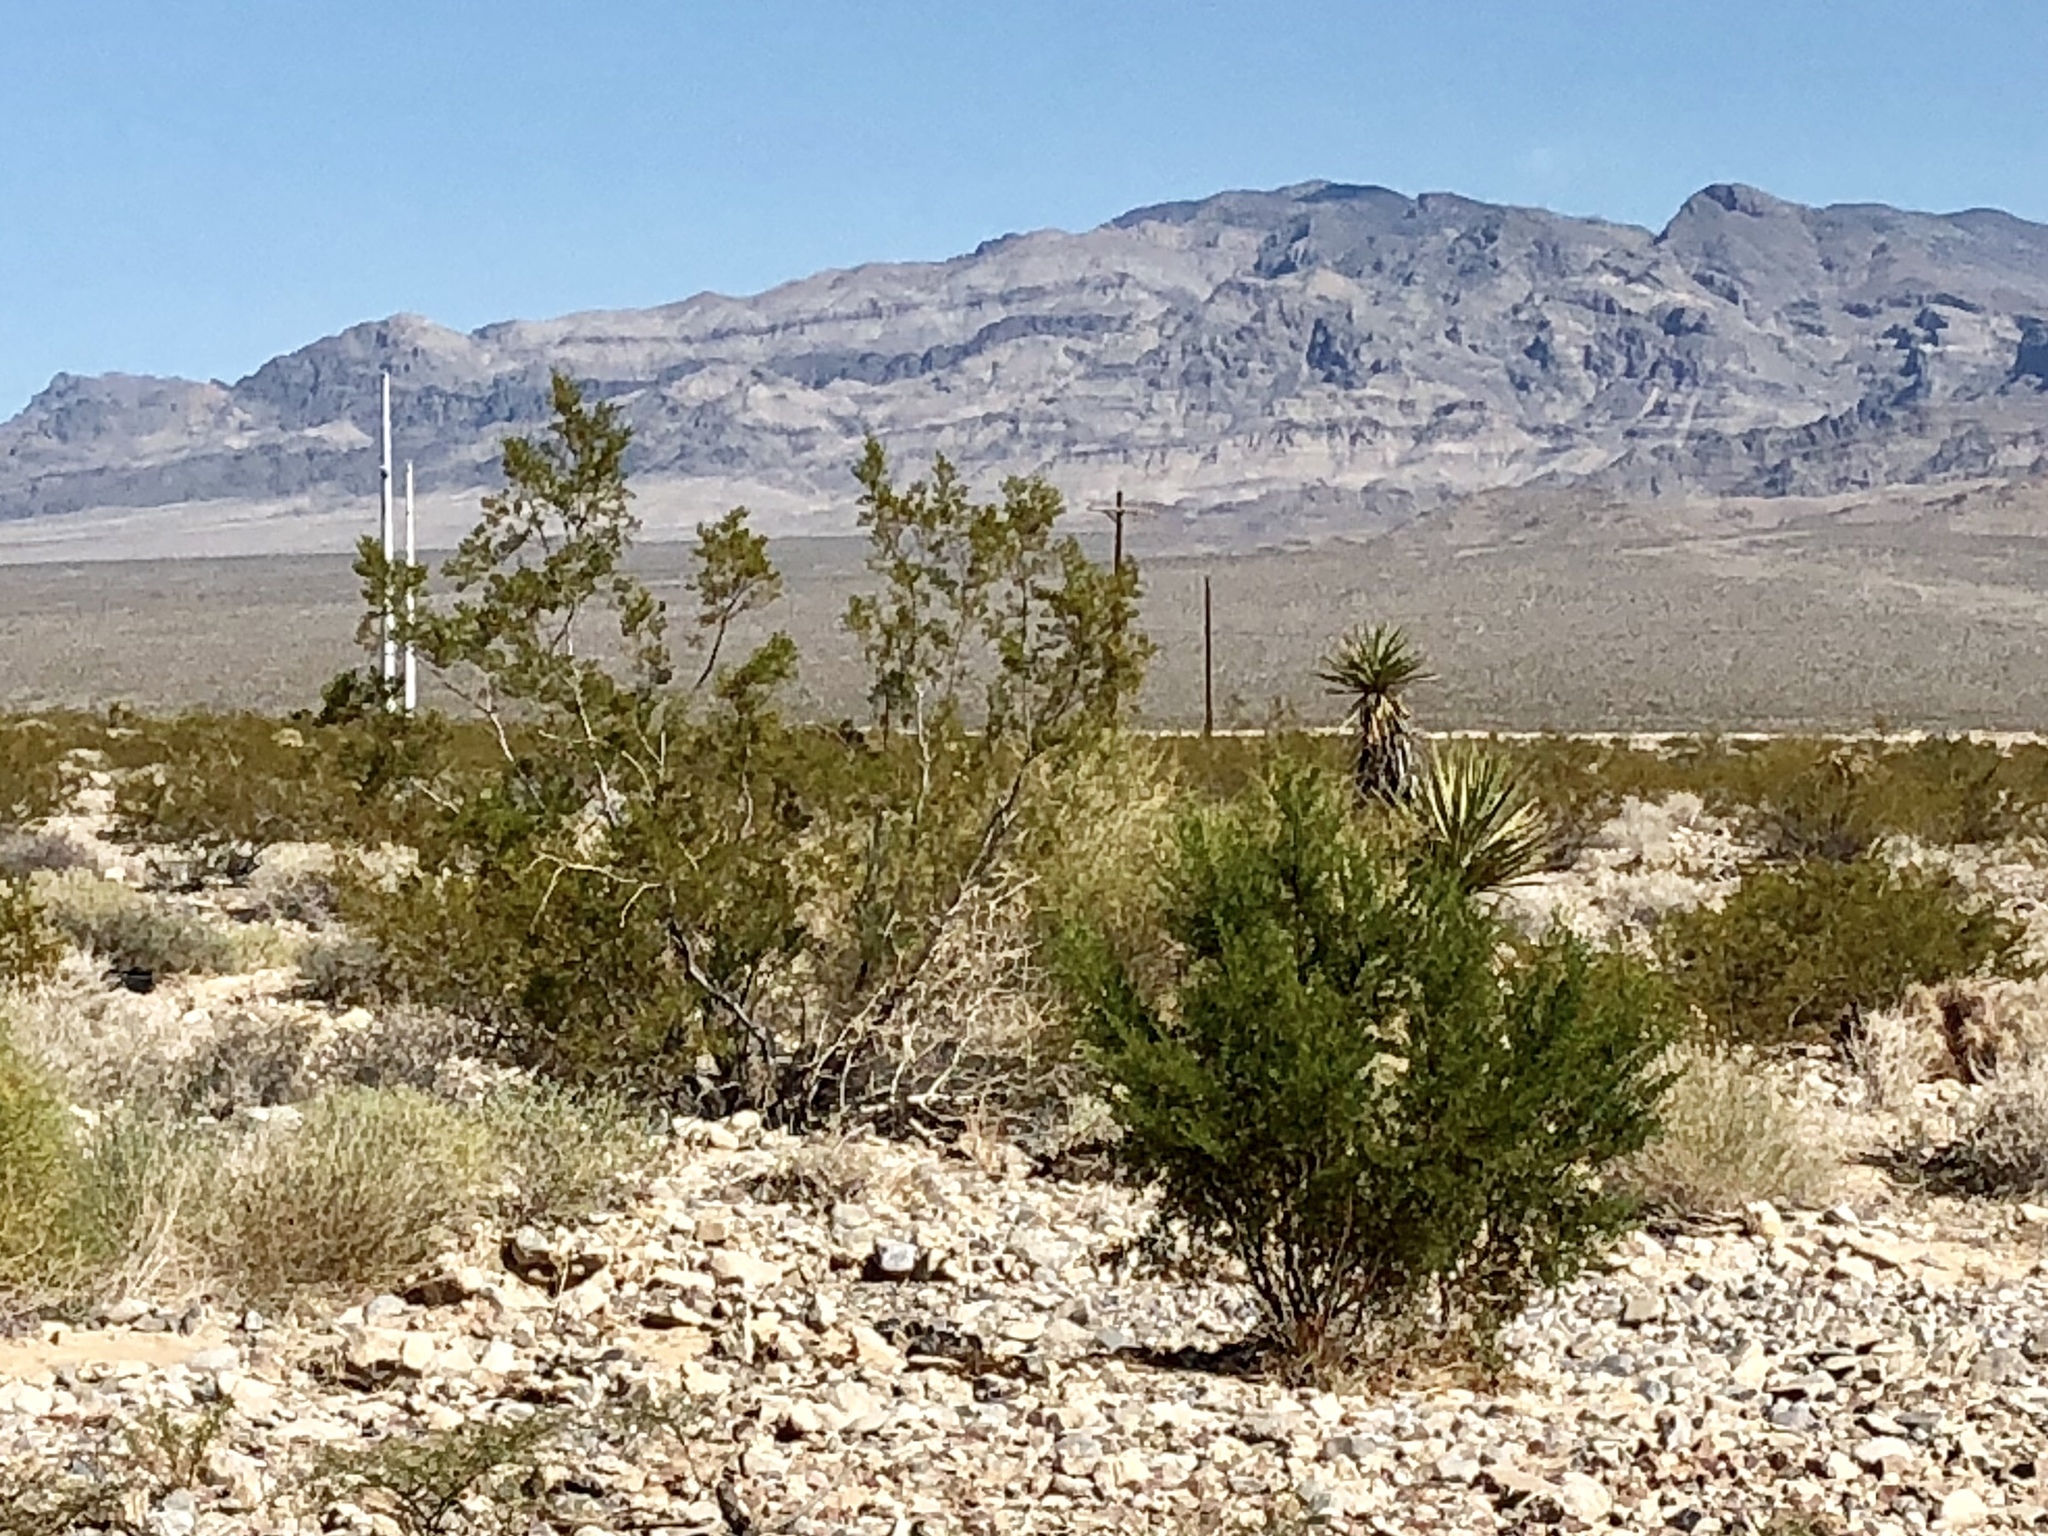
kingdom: Plantae
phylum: Tracheophyta
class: Magnoliopsida
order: Zygophyllales
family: Zygophyllaceae
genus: Larrea
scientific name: Larrea tridentata
